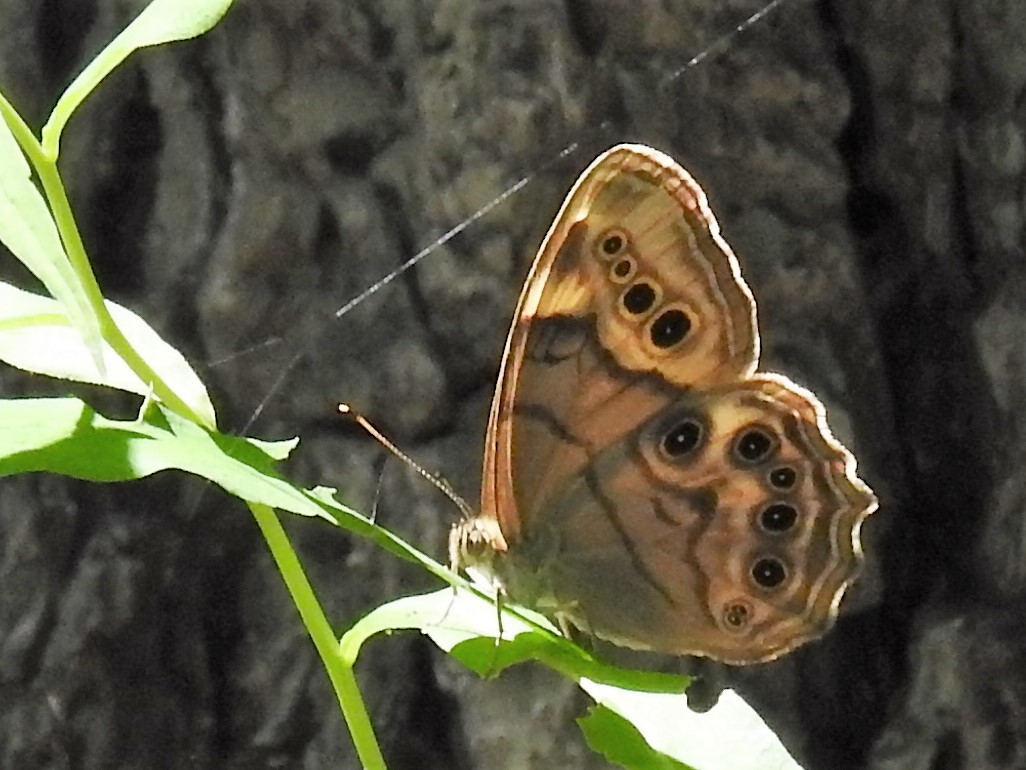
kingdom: Animalia
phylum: Arthropoda
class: Insecta
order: Lepidoptera
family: Nymphalidae
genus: Lethe
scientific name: Lethe anthedon
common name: Northern pearly-eye
